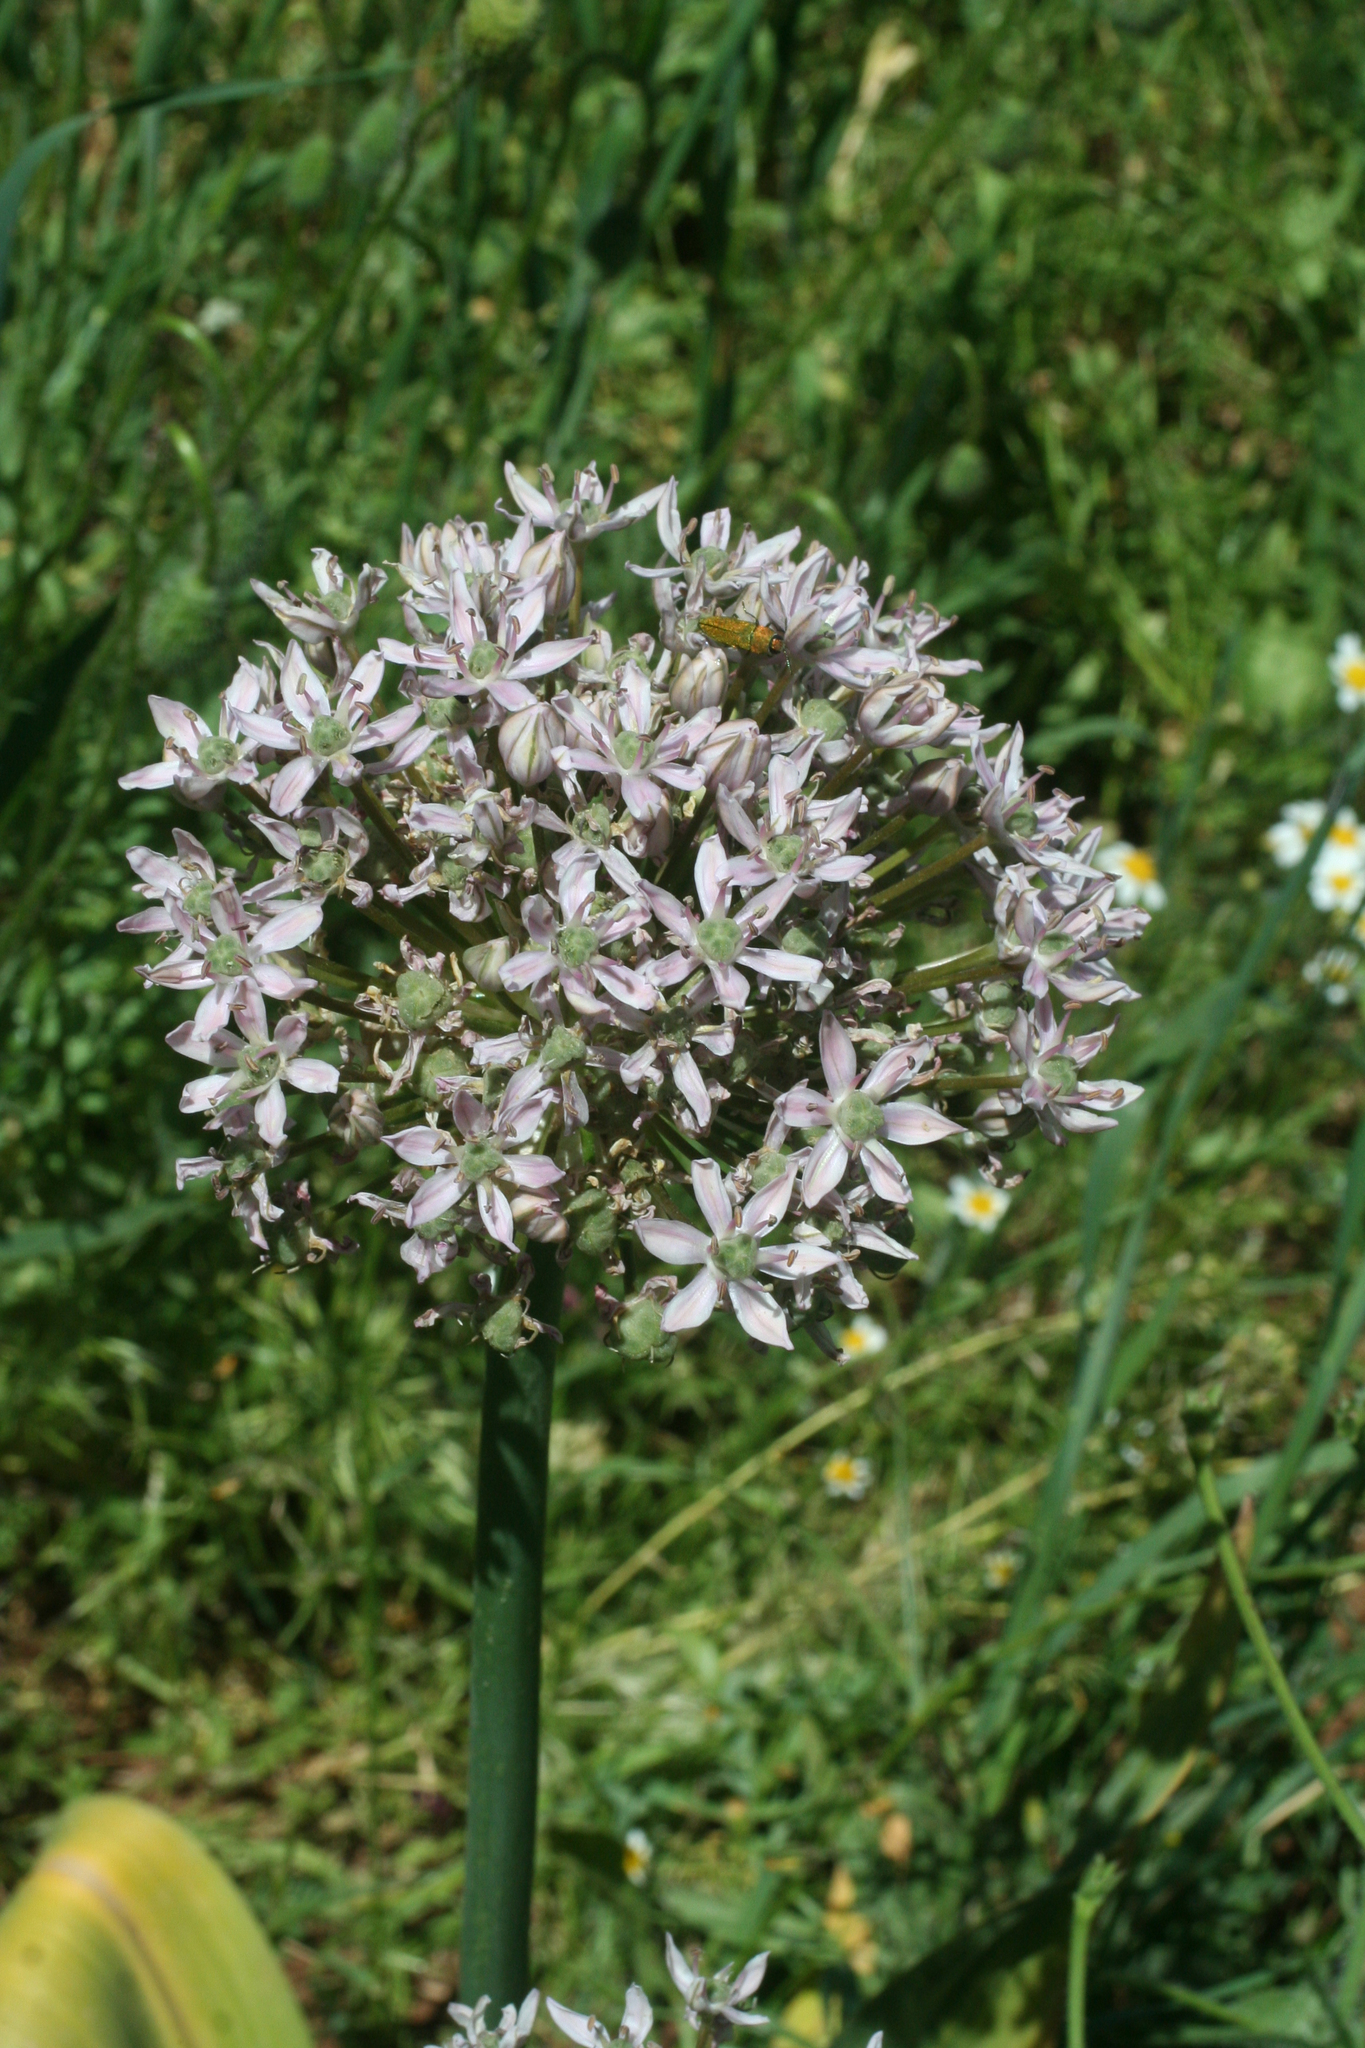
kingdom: Plantae
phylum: Tracheophyta
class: Liliopsida
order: Asparagales
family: Amaryllidaceae
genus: Allium
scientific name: Allium nigrum
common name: Black garlic
